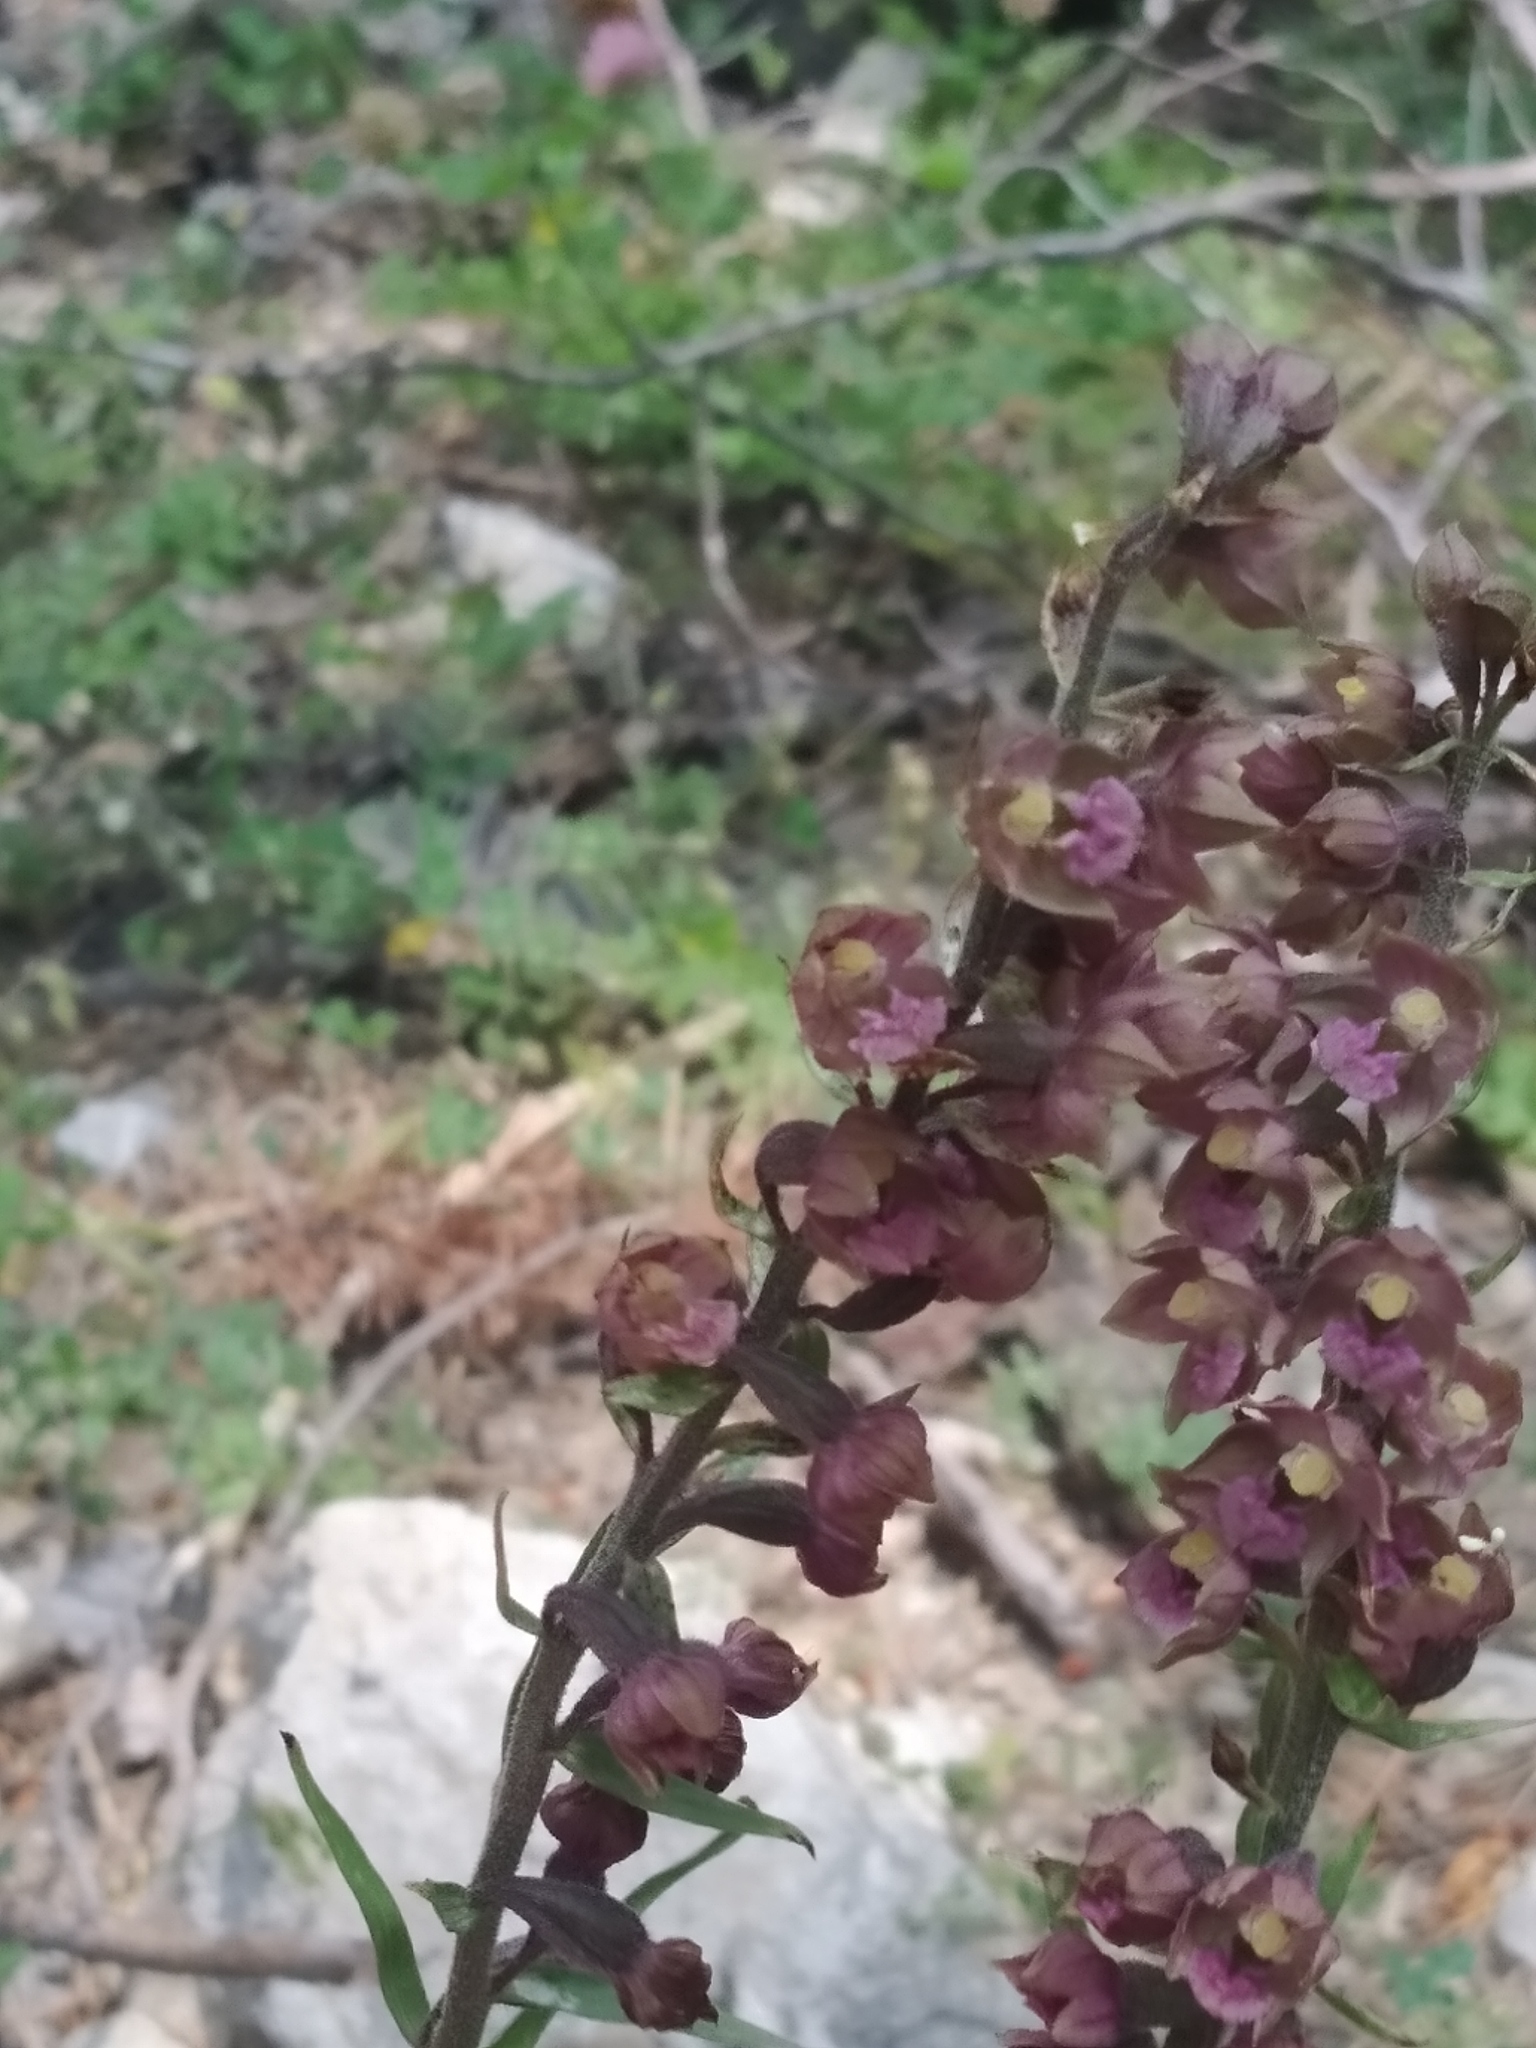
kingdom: Plantae
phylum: Tracheophyta
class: Liliopsida
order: Asparagales
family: Orchidaceae
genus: Epipactis
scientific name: Epipactis atrorubens
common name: Dark-red helleborine
